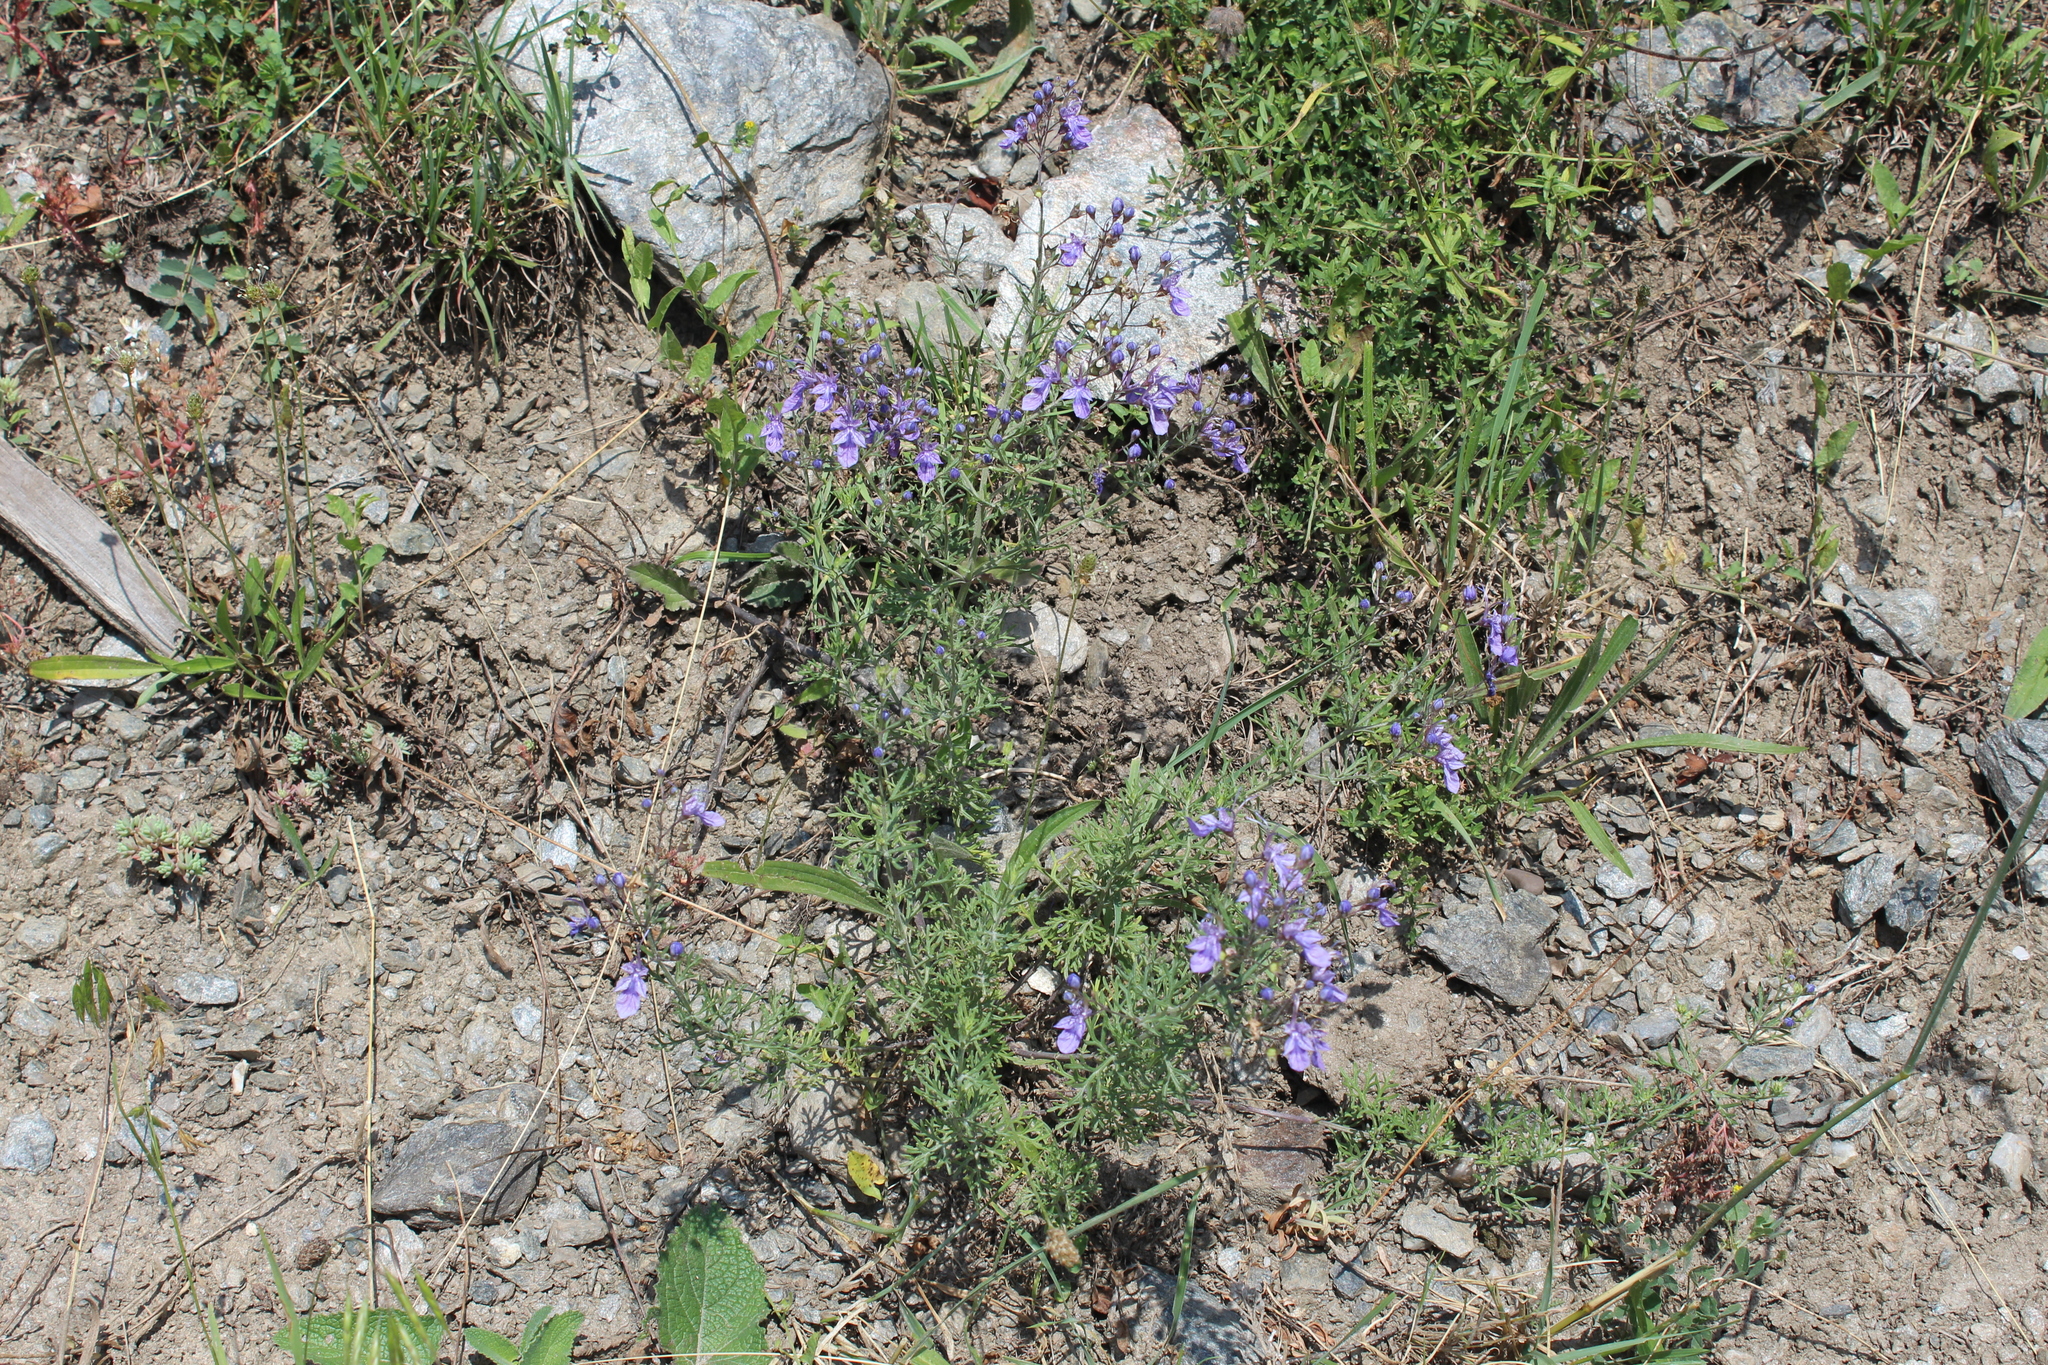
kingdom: Plantae
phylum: Tracheophyta
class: Magnoliopsida
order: Lamiales
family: Lamiaceae
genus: Teucrium
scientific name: Teucrium orientale
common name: Oriental germander
